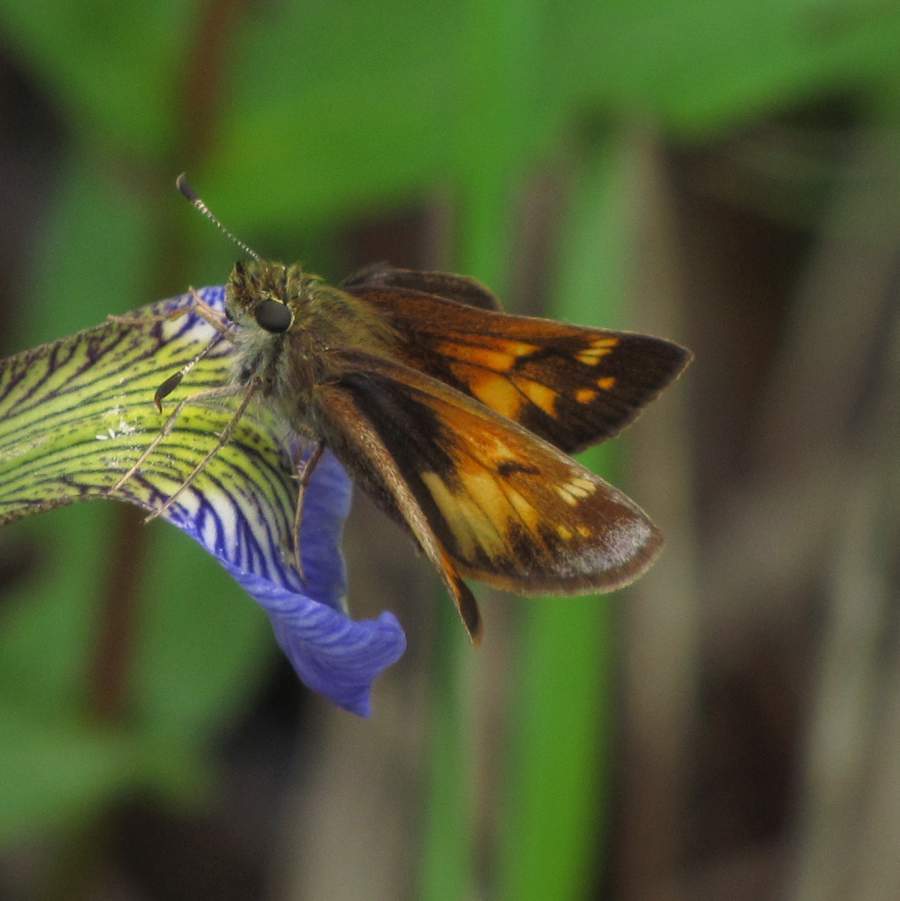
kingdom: Animalia
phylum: Arthropoda
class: Insecta
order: Lepidoptera
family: Hesperiidae
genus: Lon
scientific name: Lon hobomok
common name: Hobomok skipper
